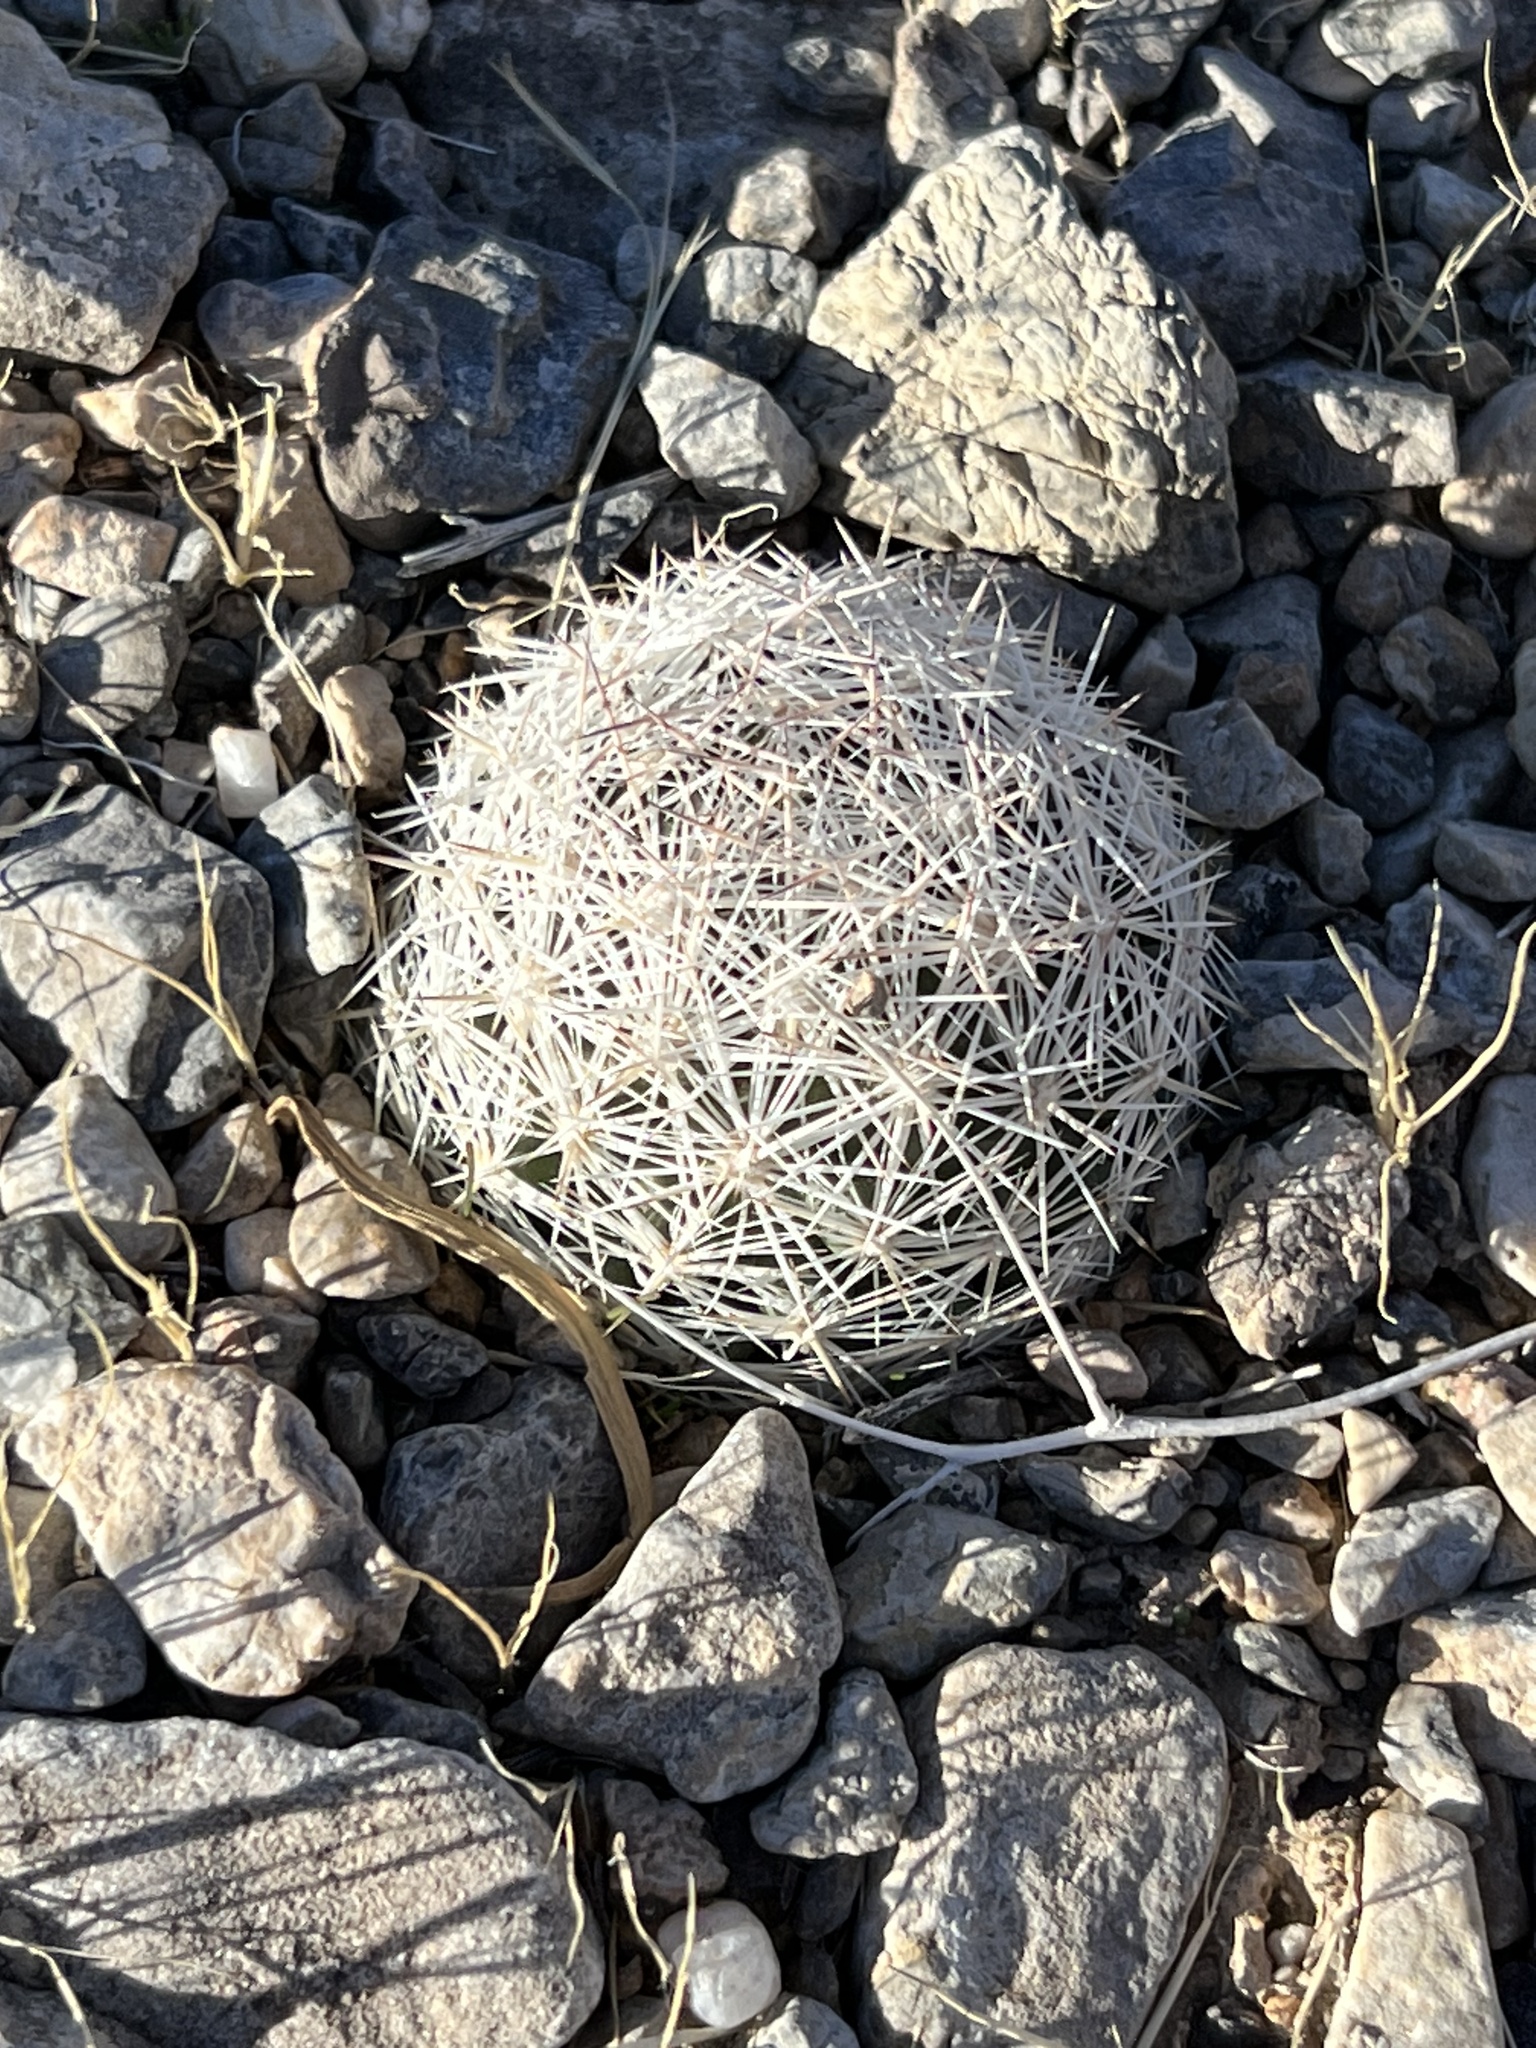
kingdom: Plantae
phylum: Tracheophyta
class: Magnoliopsida
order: Caryophyllales
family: Cactaceae
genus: Pelecyphora
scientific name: Pelecyphora dasyacantha
